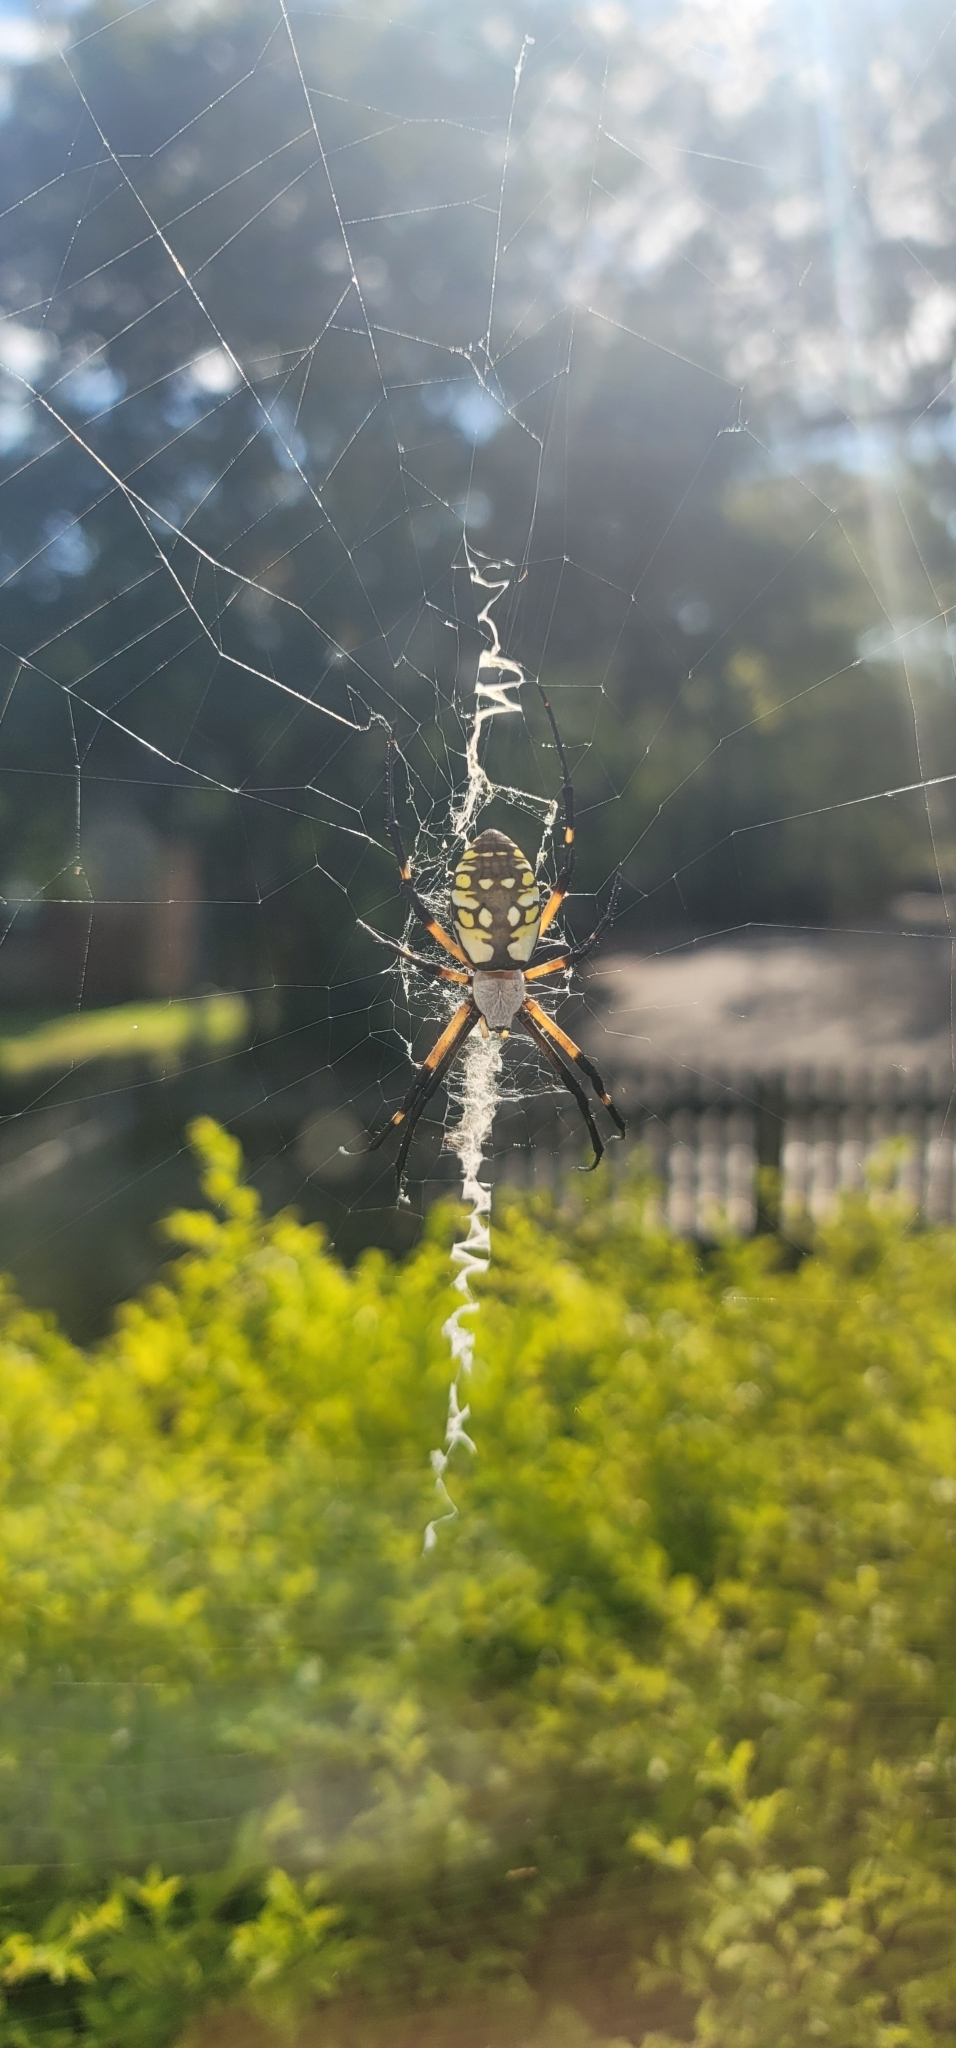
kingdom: Animalia
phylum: Arthropoda
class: Arachnida
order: Araneae
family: Araneidae
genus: Argiope
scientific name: Argiope aurantia
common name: Orb weavers
